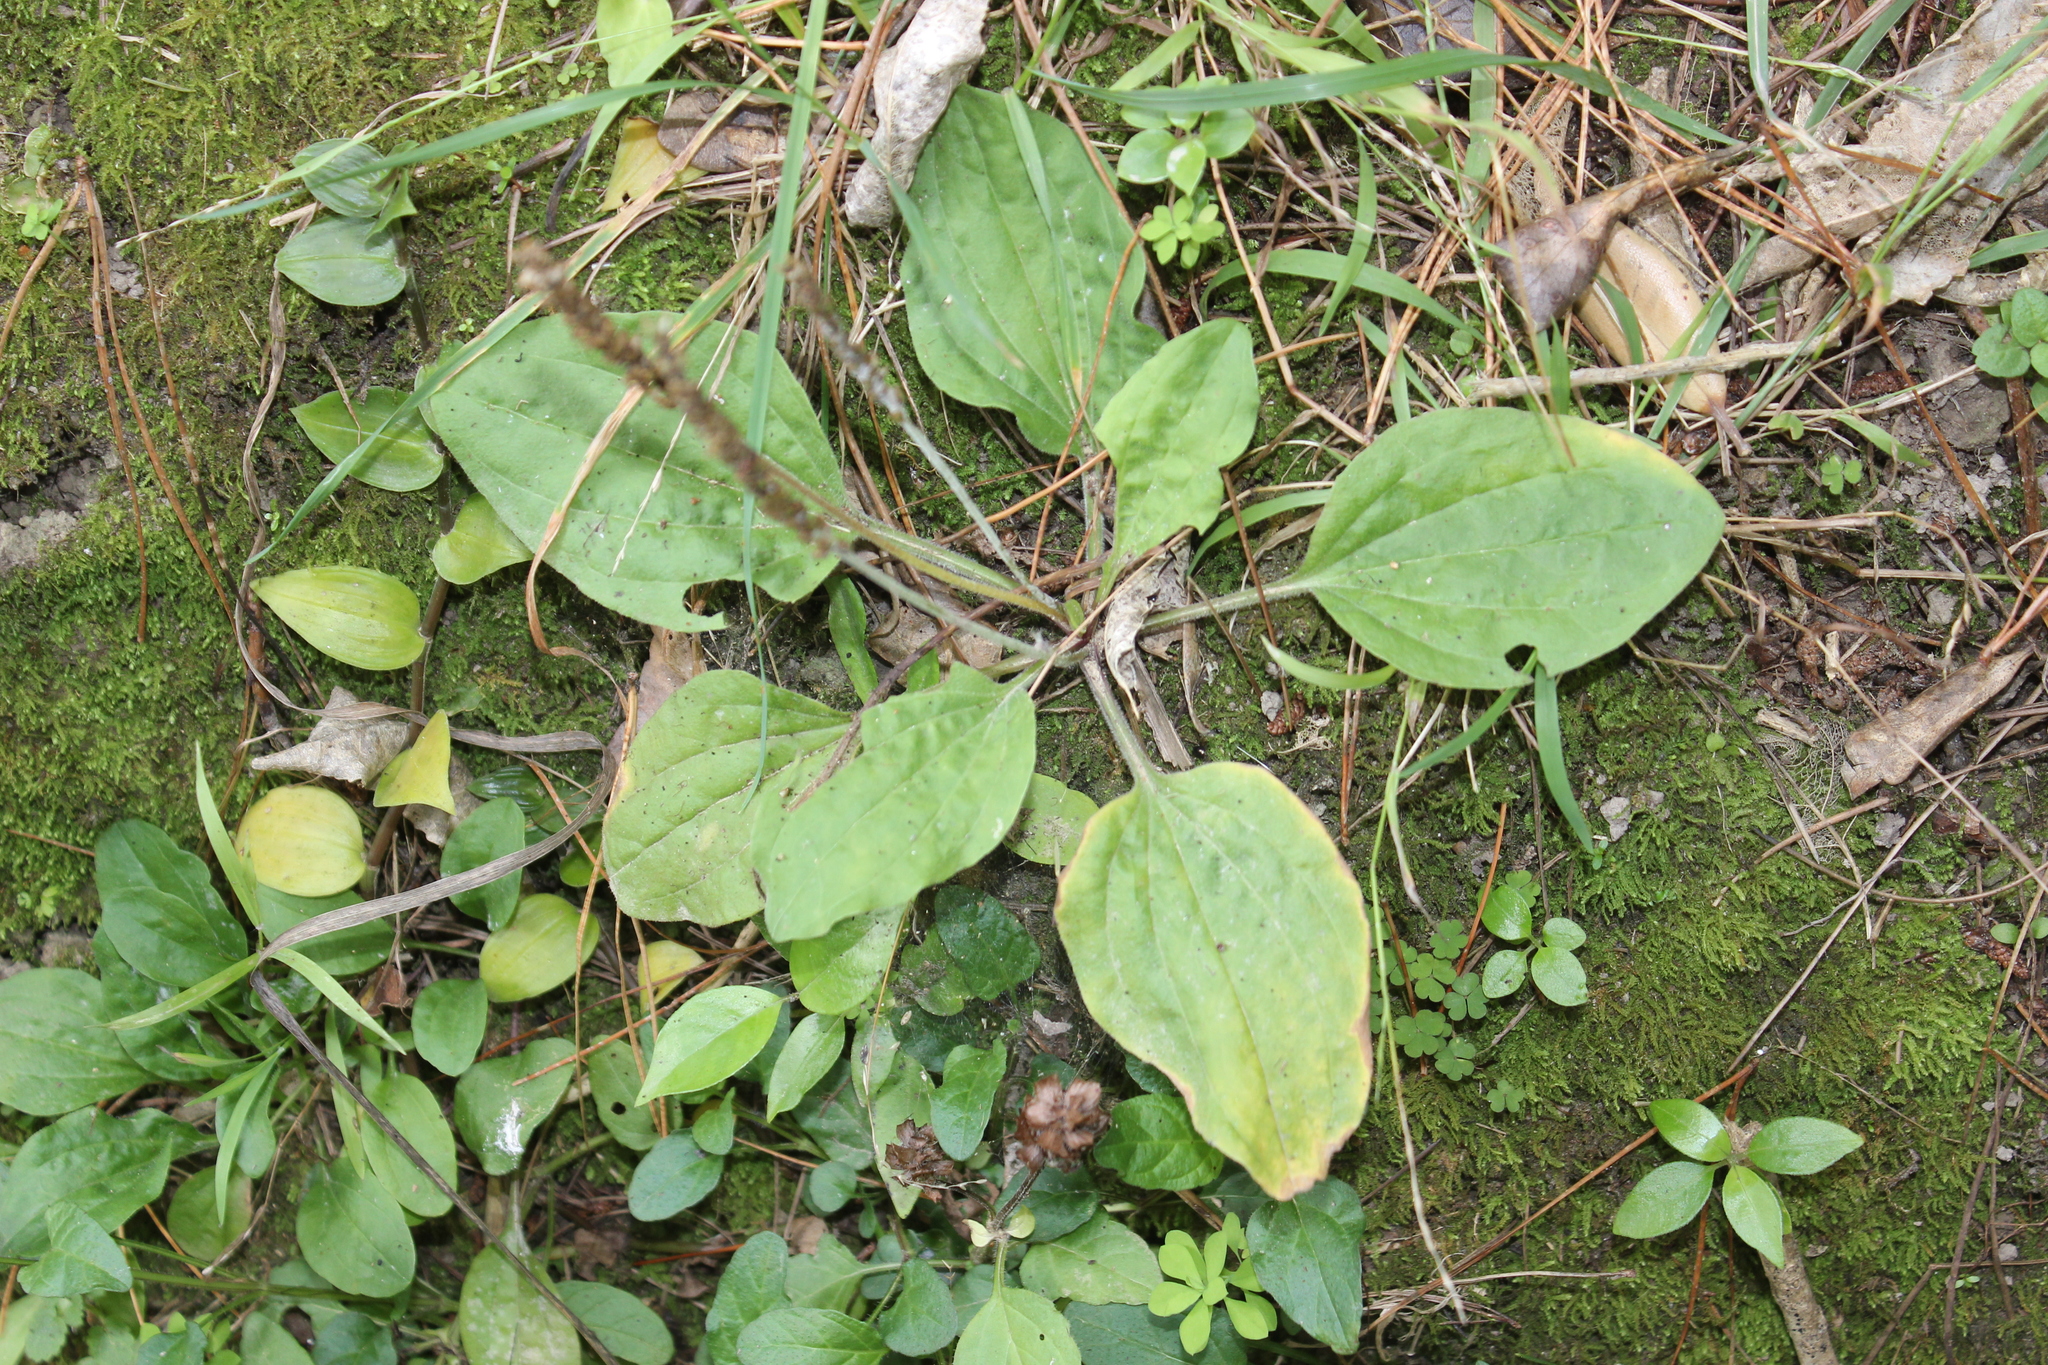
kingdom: Plantae
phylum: Tracheophyta
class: Magnoliopsida
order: Lamiales
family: Plantaginaceae
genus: Plantago
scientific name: Plantago major
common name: Common plantain
